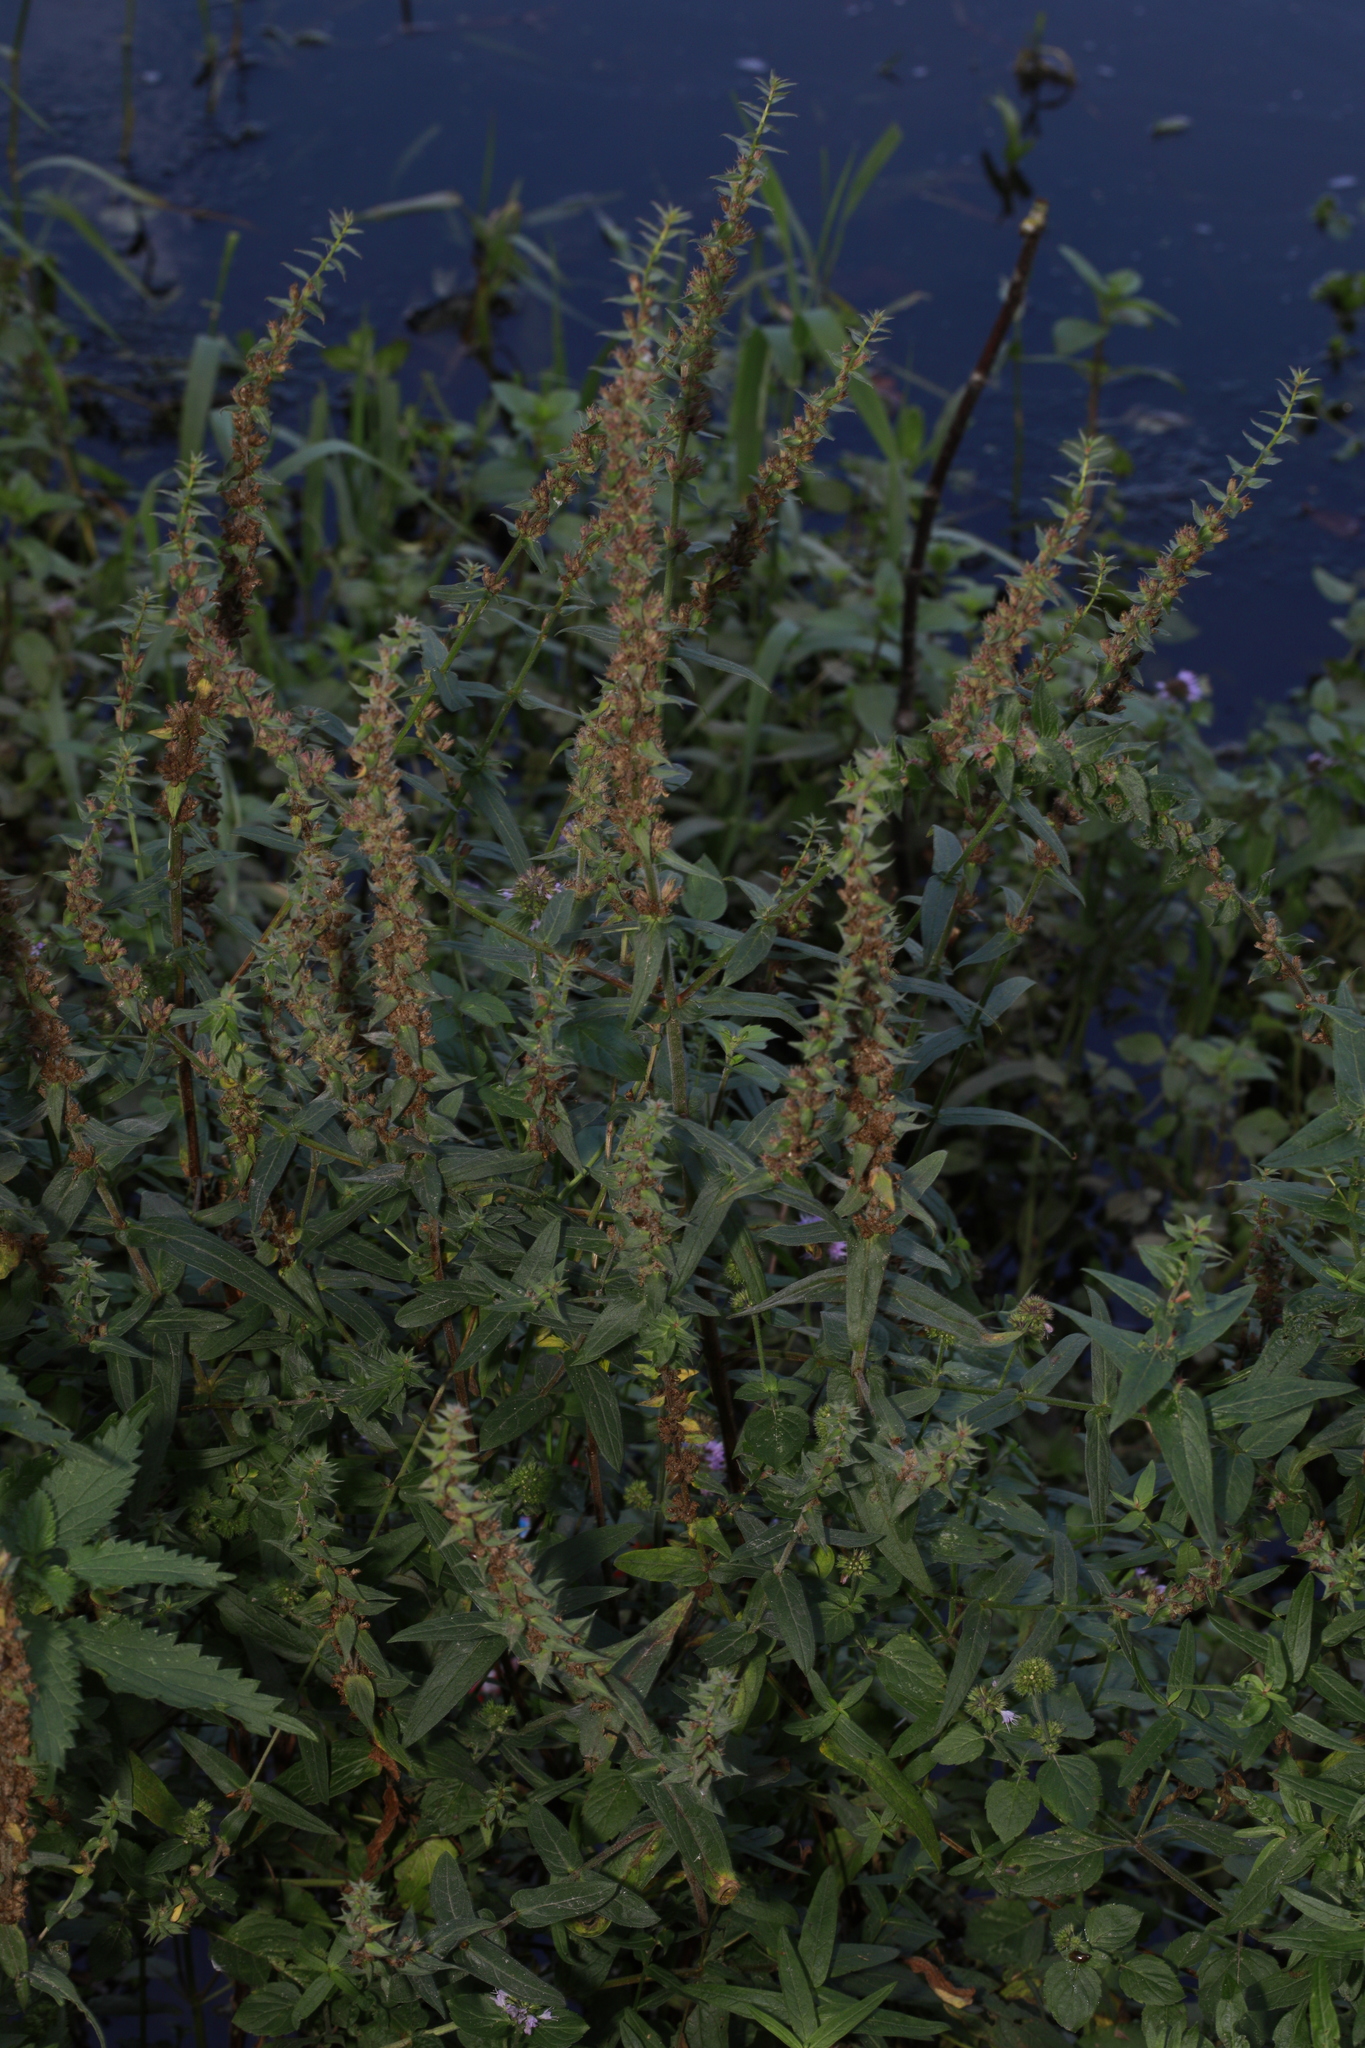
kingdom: Plantae
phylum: Tracheophyta
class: Magnoliopsida
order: Myrtales
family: Lythraceae
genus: Lythrum
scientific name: Lythrum salicaria
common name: Purple loosestrife
